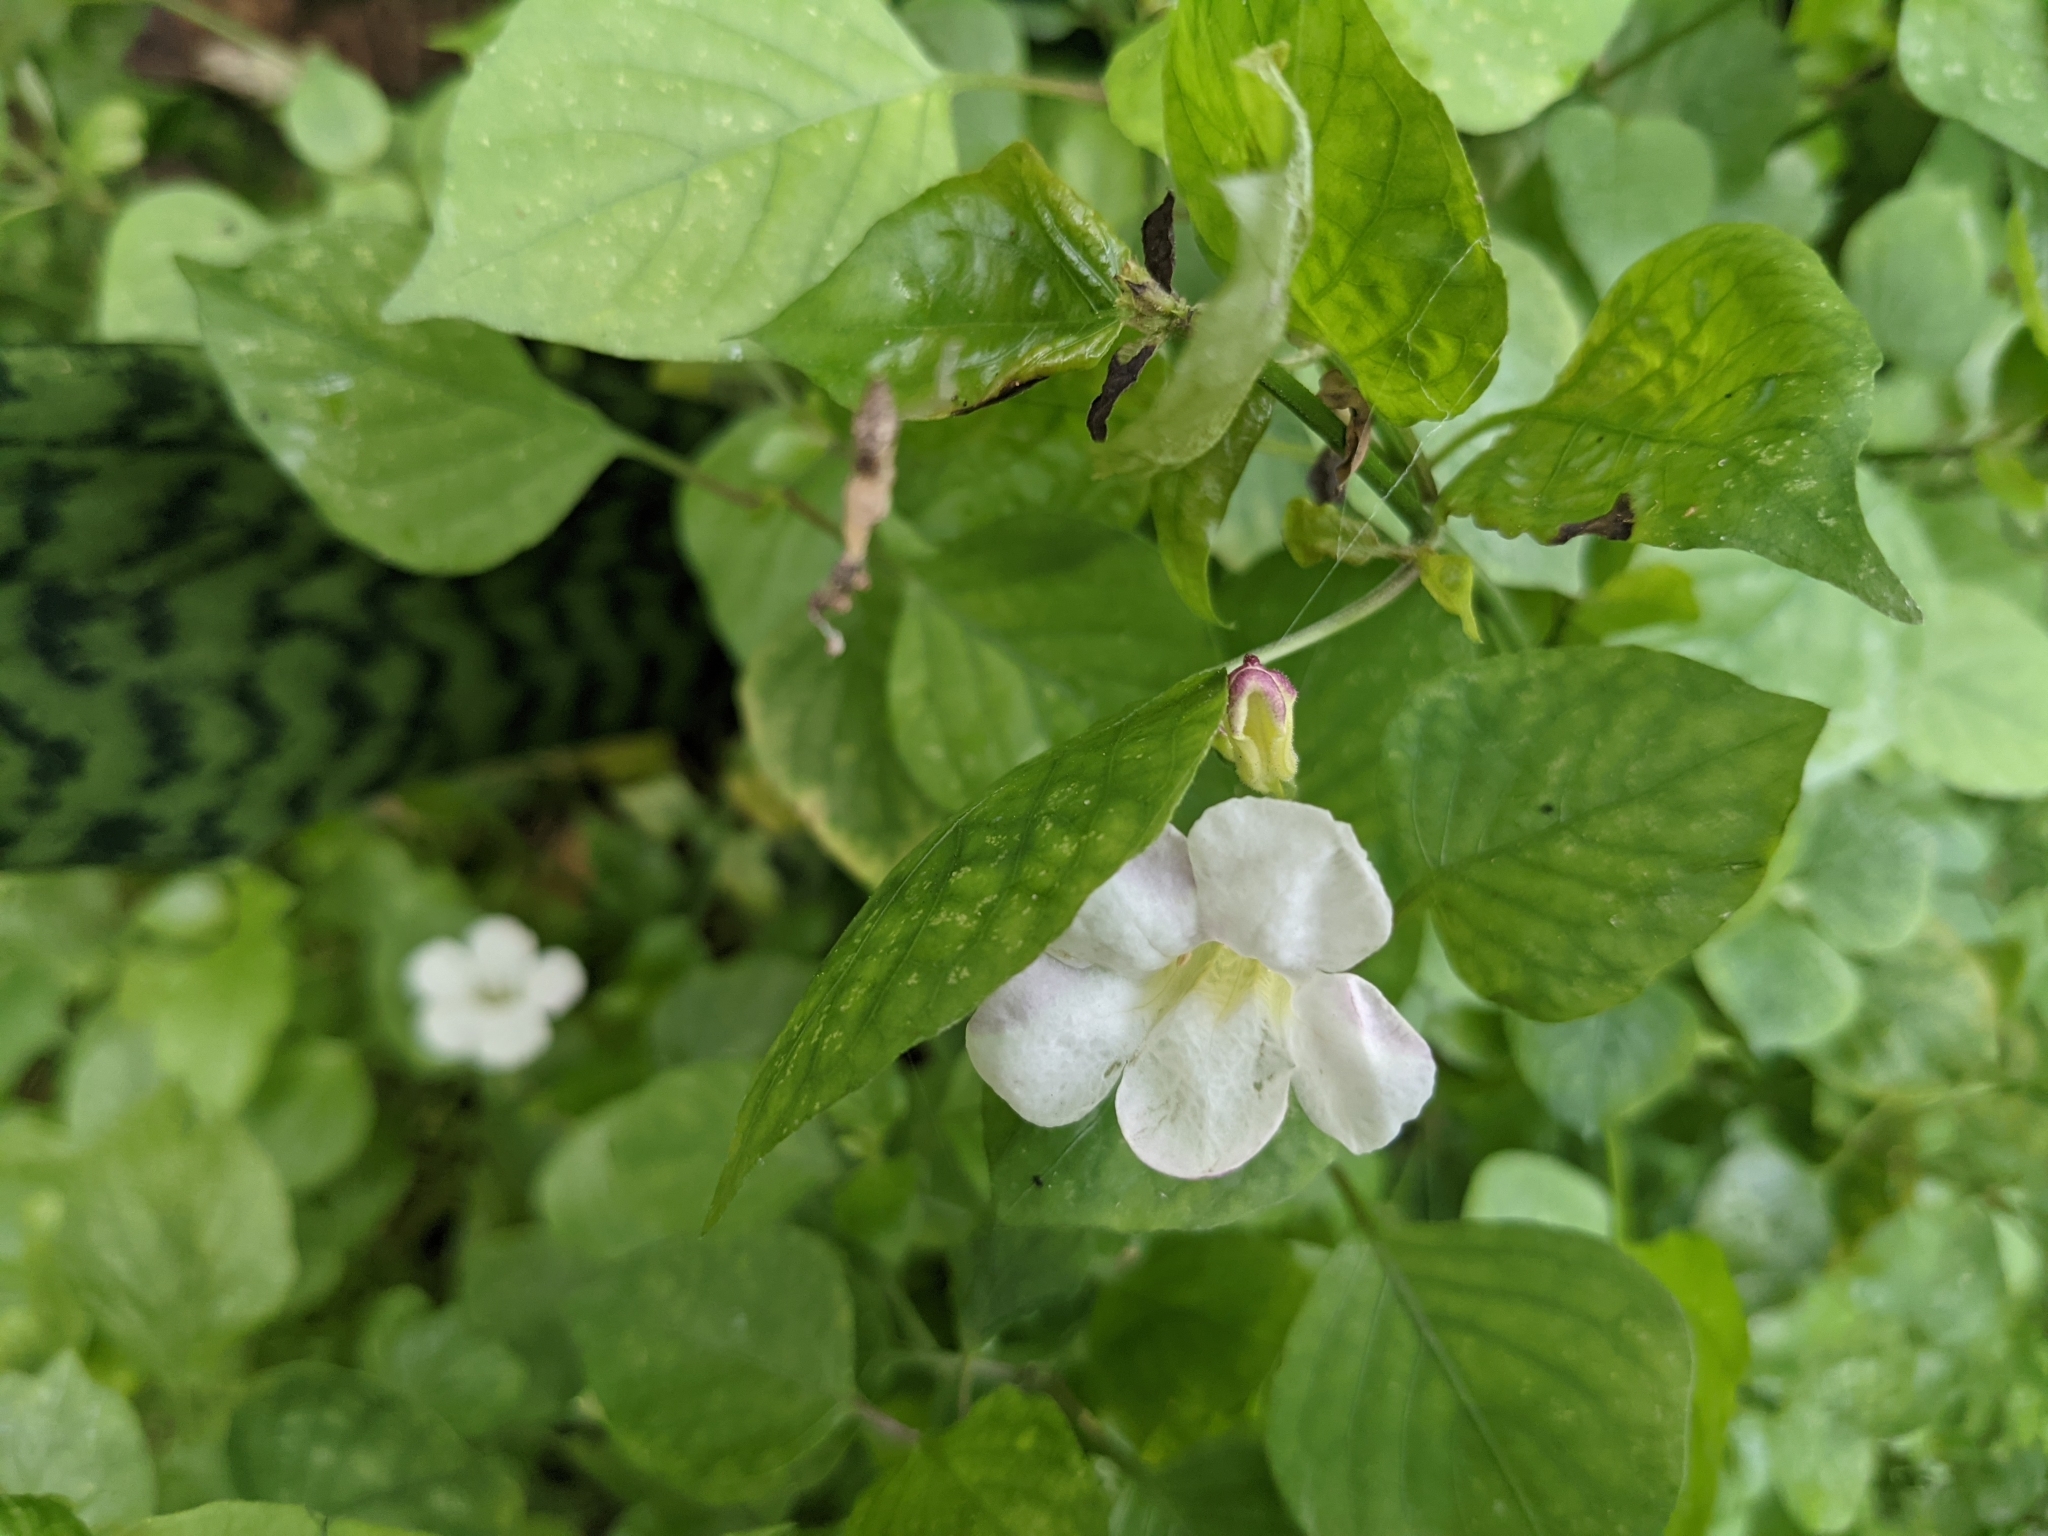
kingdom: Plantae
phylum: Tracheophyta
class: Magnoliopsida
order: Lamiales
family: Acanthaceae
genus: Asystasia
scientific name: Asystasia gangetica
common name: Chinese violet
